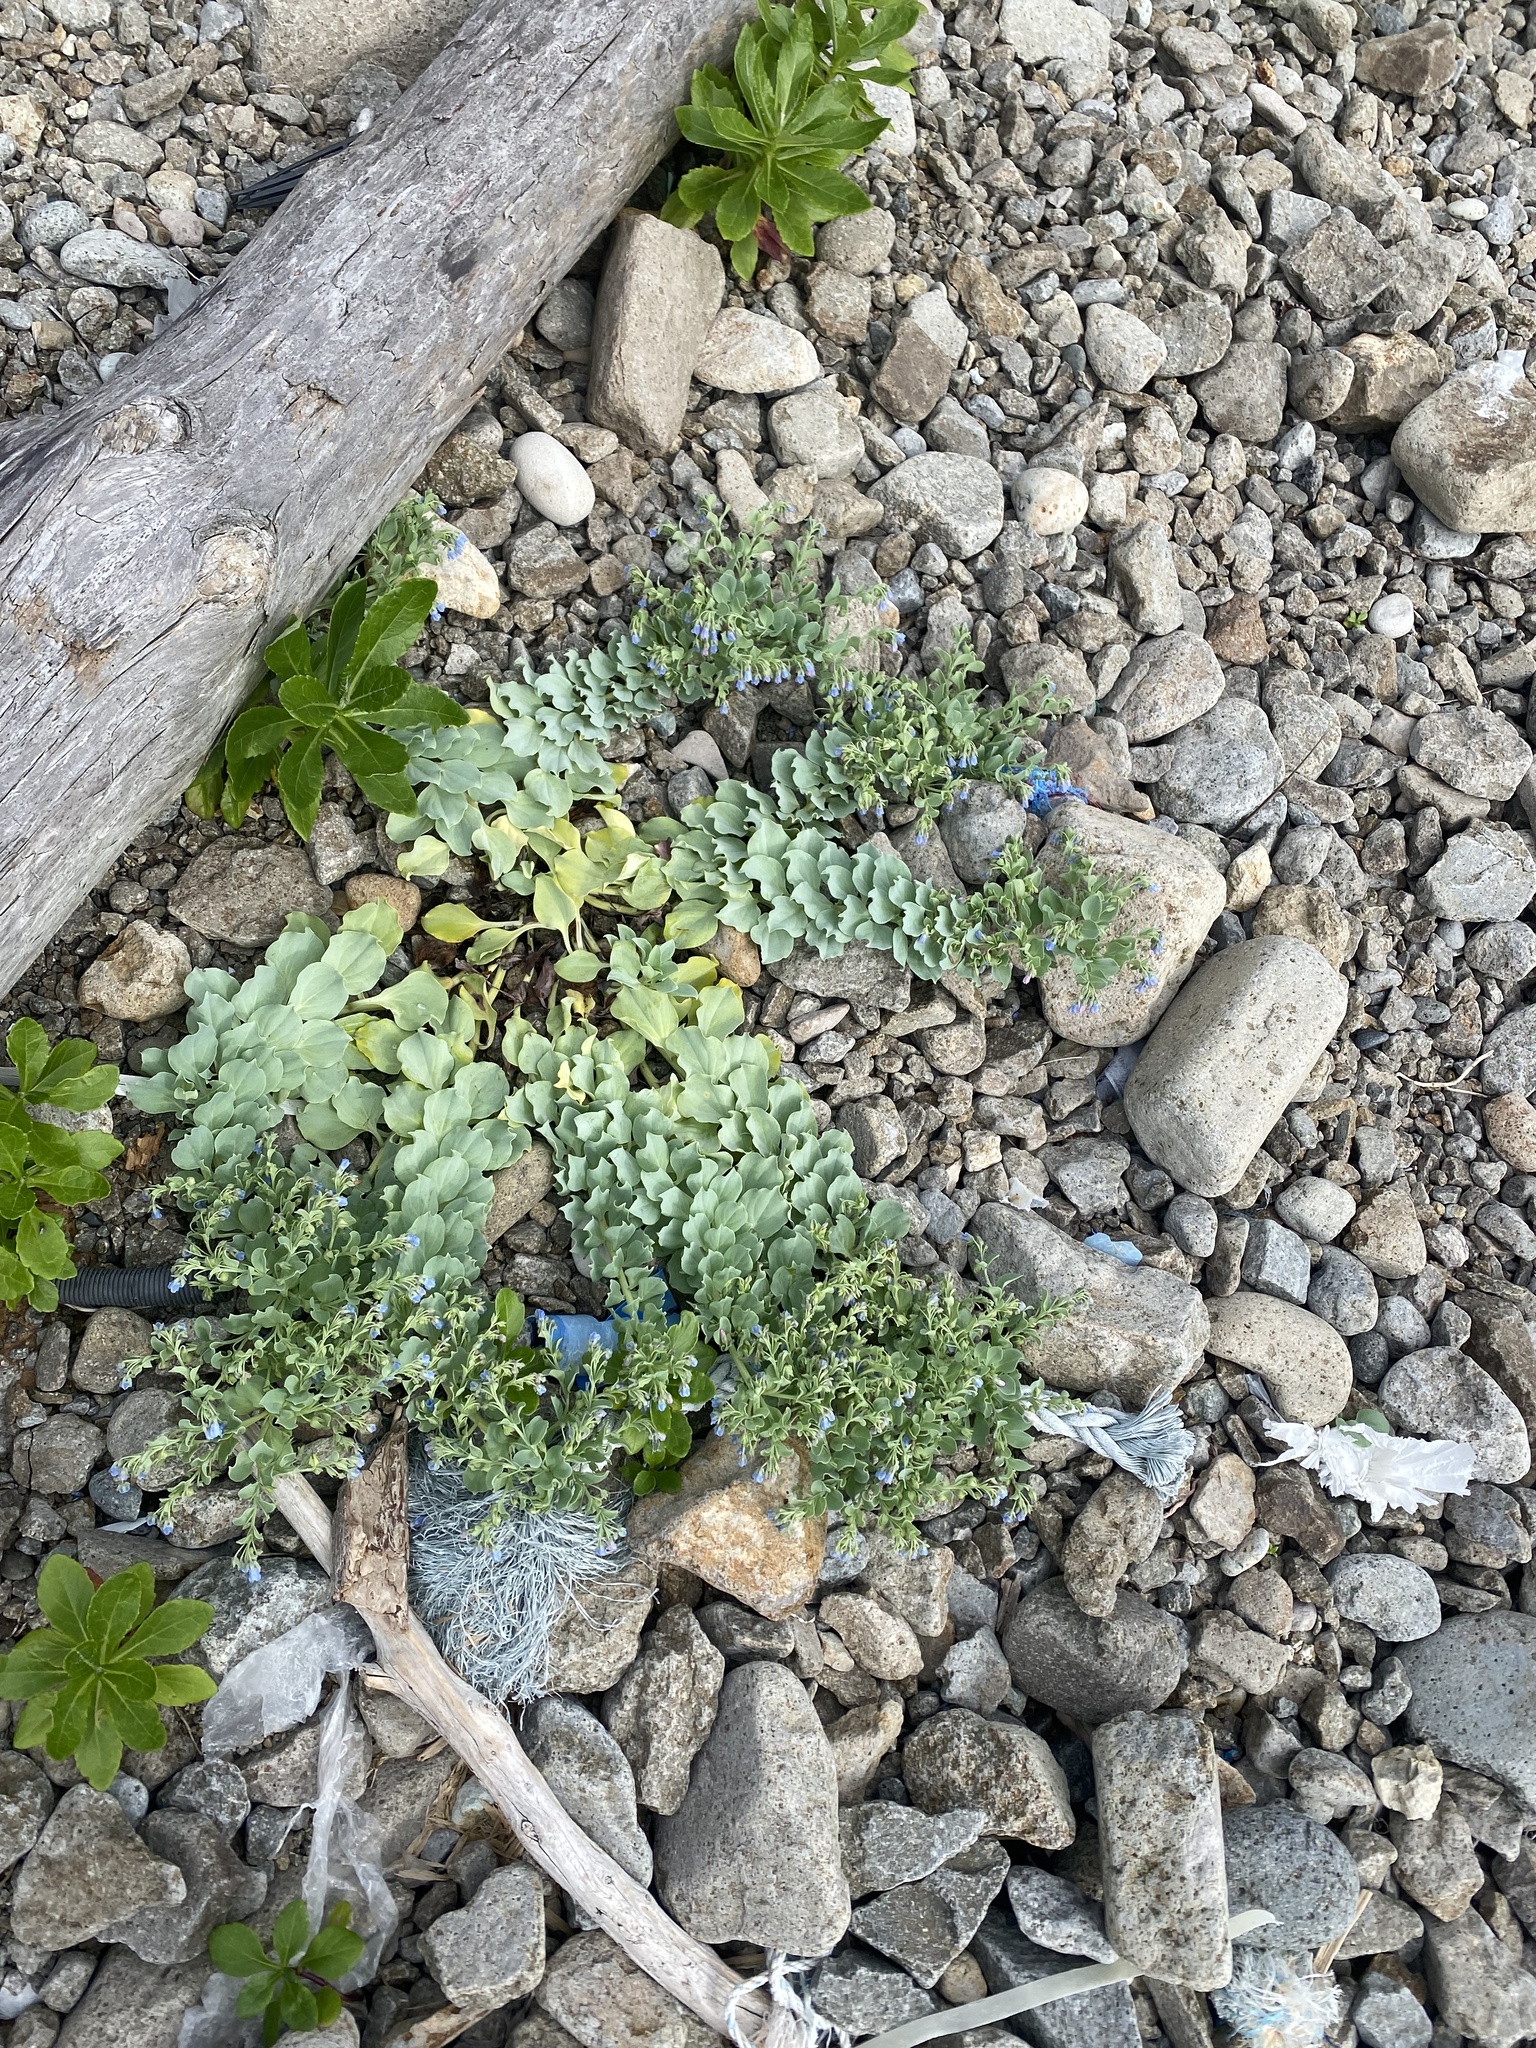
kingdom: Plantae
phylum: Tracheophyta
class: Magnoliopsida
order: Boraginales
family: Boraginaceae
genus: Mertensia
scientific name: Mertensia maritima
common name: Oysterplant
